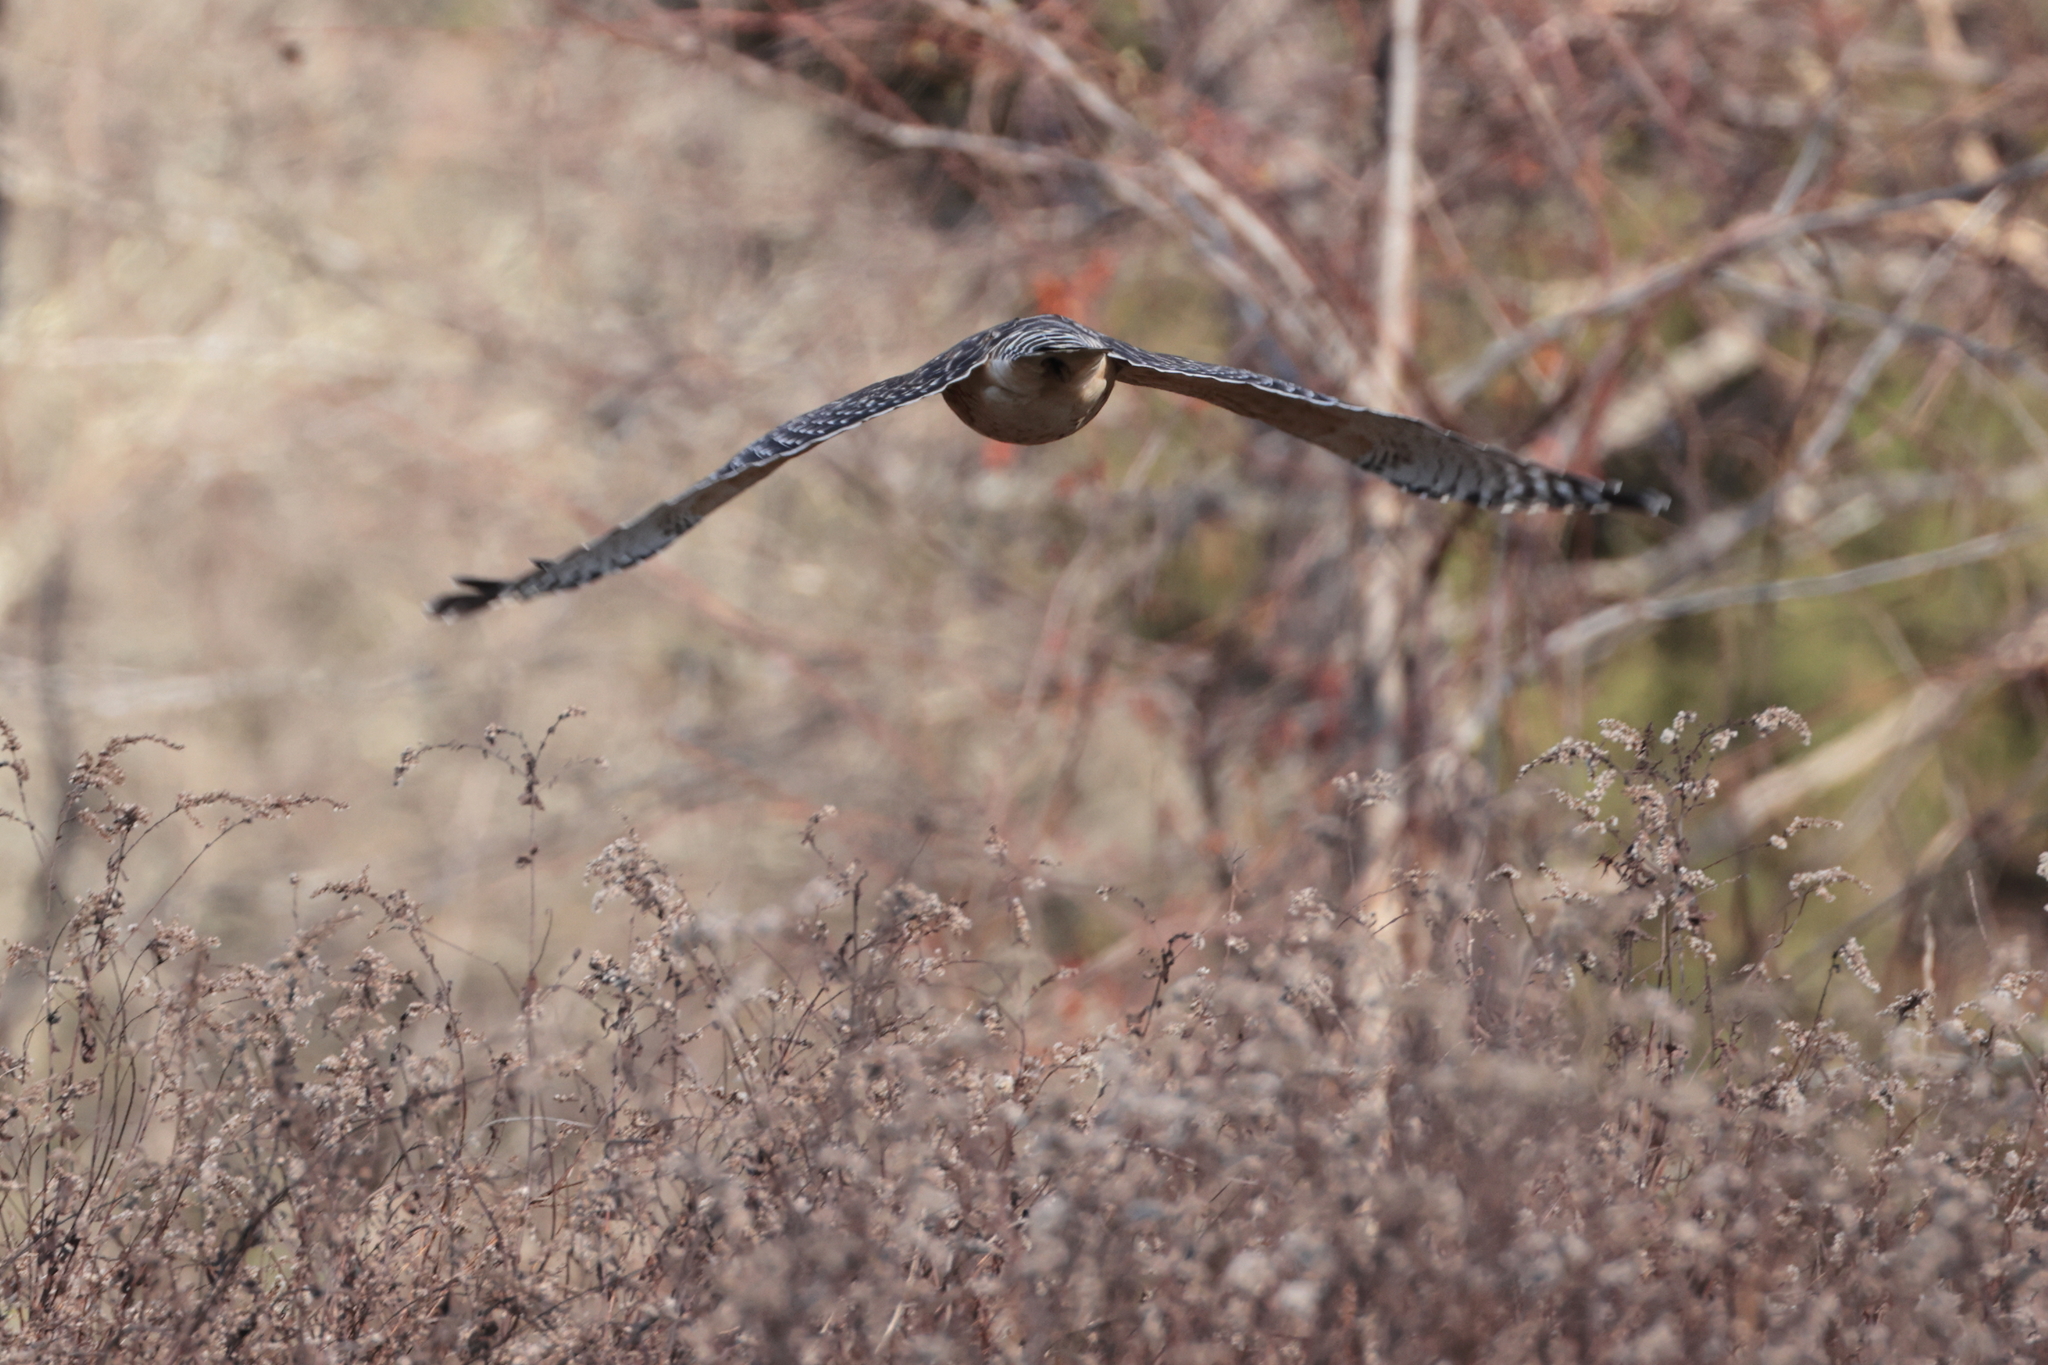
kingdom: Animalia
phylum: Chordata
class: Aves
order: Accipitriformes
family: Accipitridae
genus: Buteo
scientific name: Buteo lineatus
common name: Red-shouldered hawk
